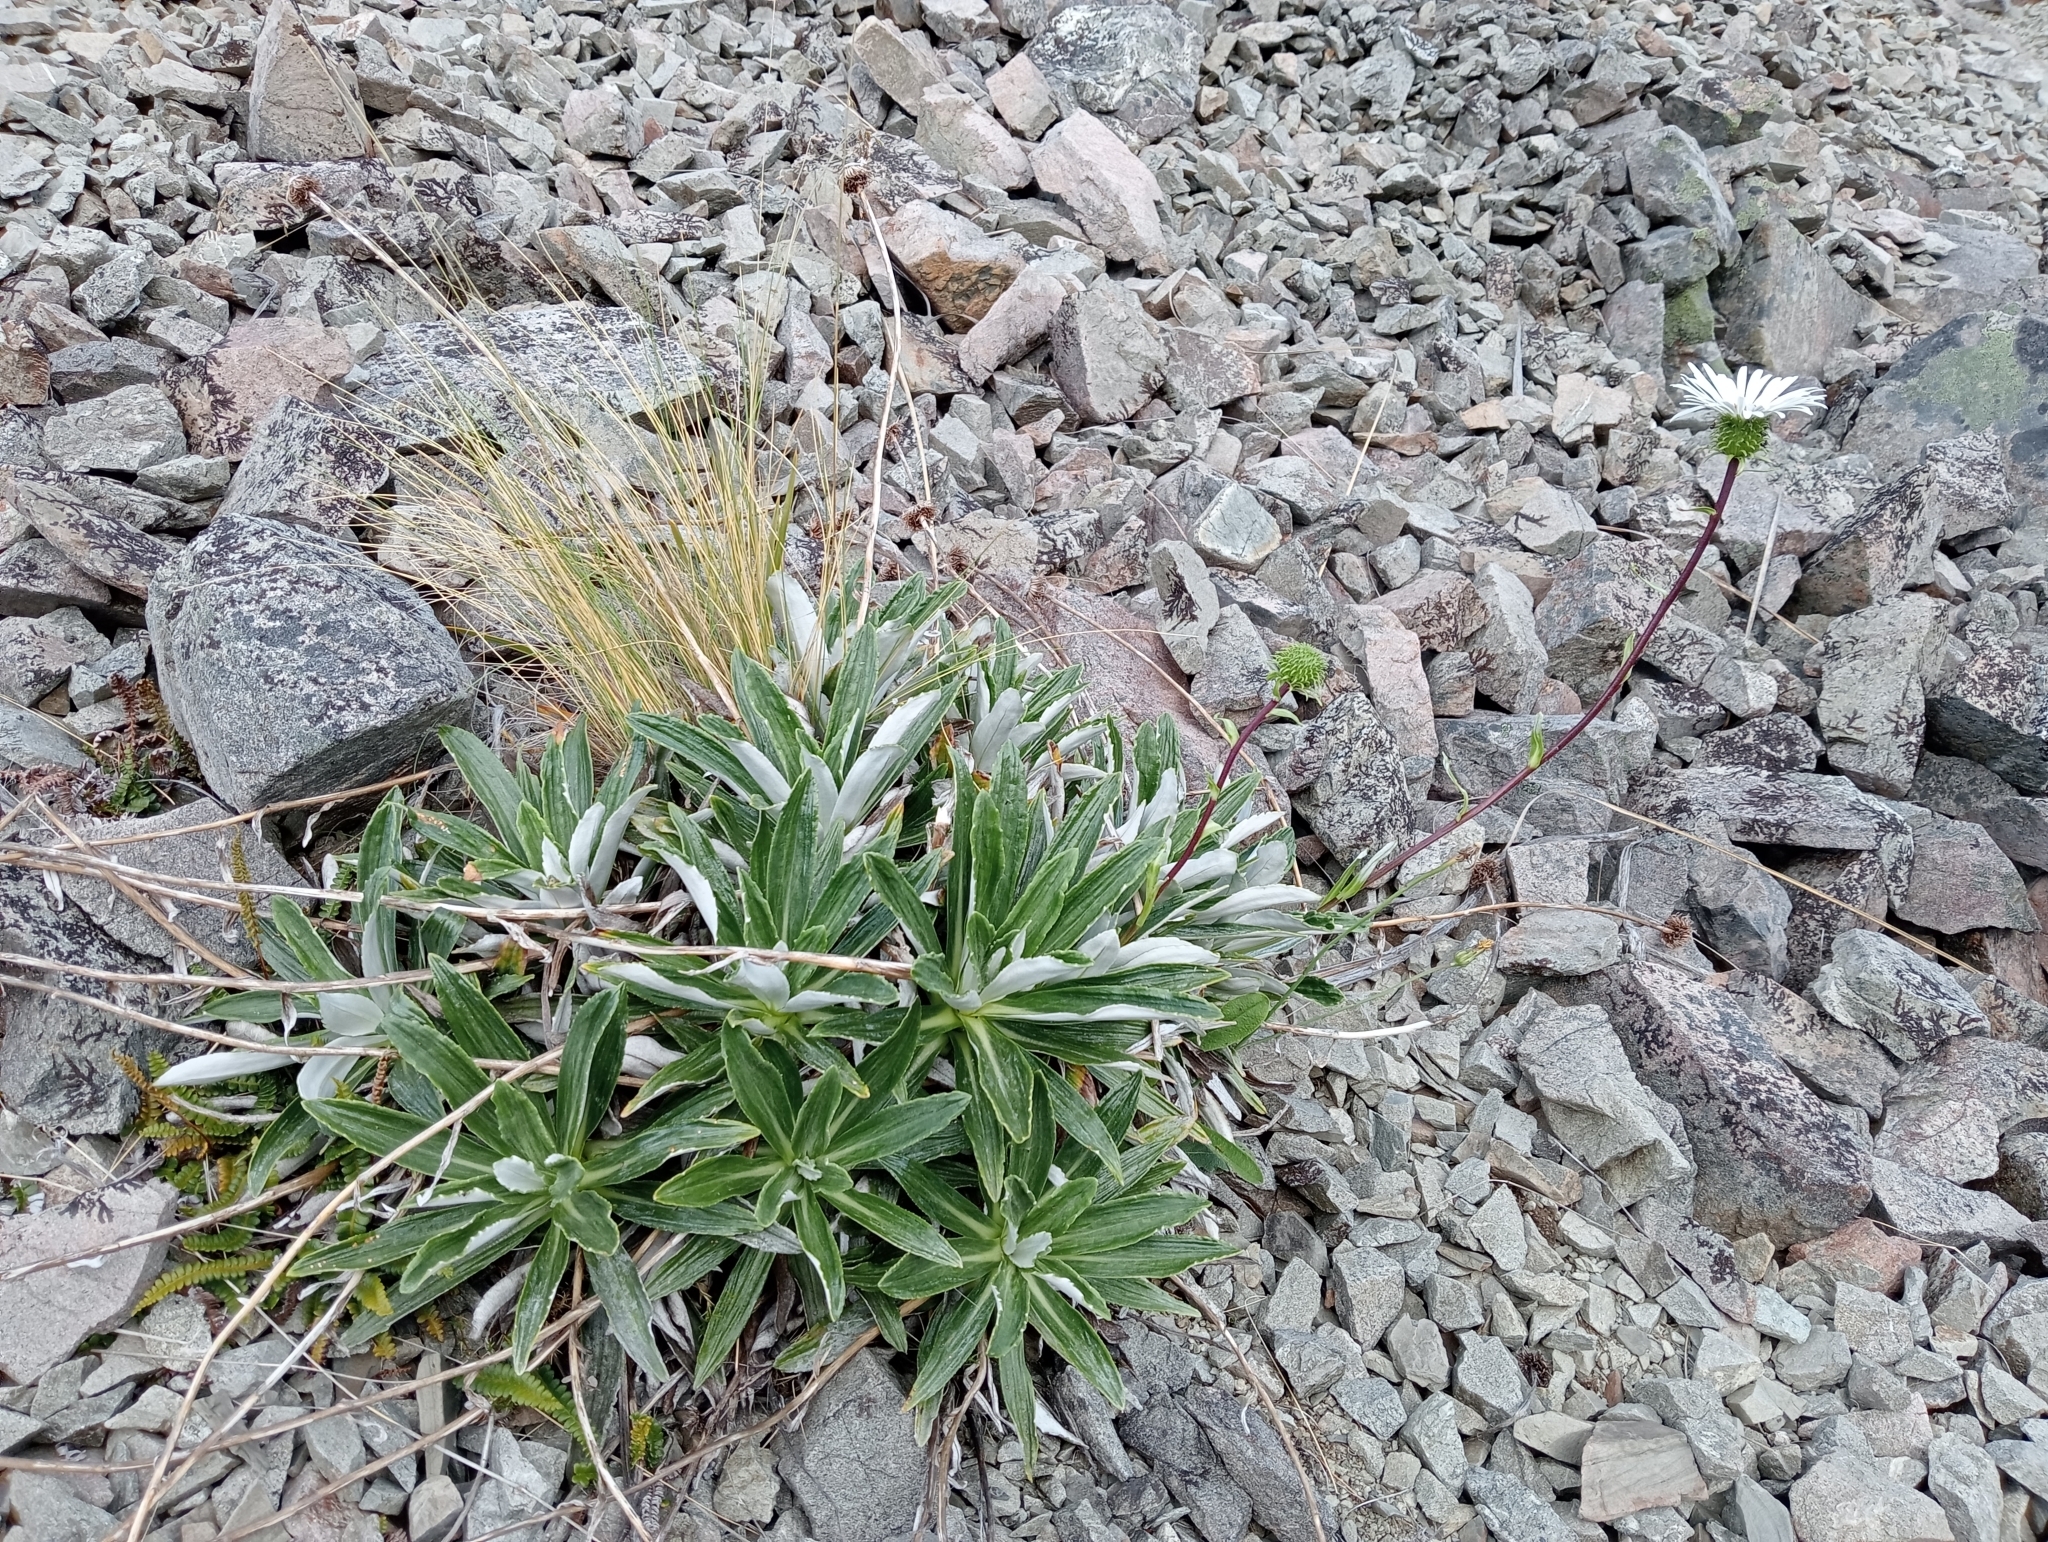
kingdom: Plantae
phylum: Tracheophyta
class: Magnoliopsida
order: Asterales
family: Asteraceae
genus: Celmisia
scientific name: Celmisia densiflora
